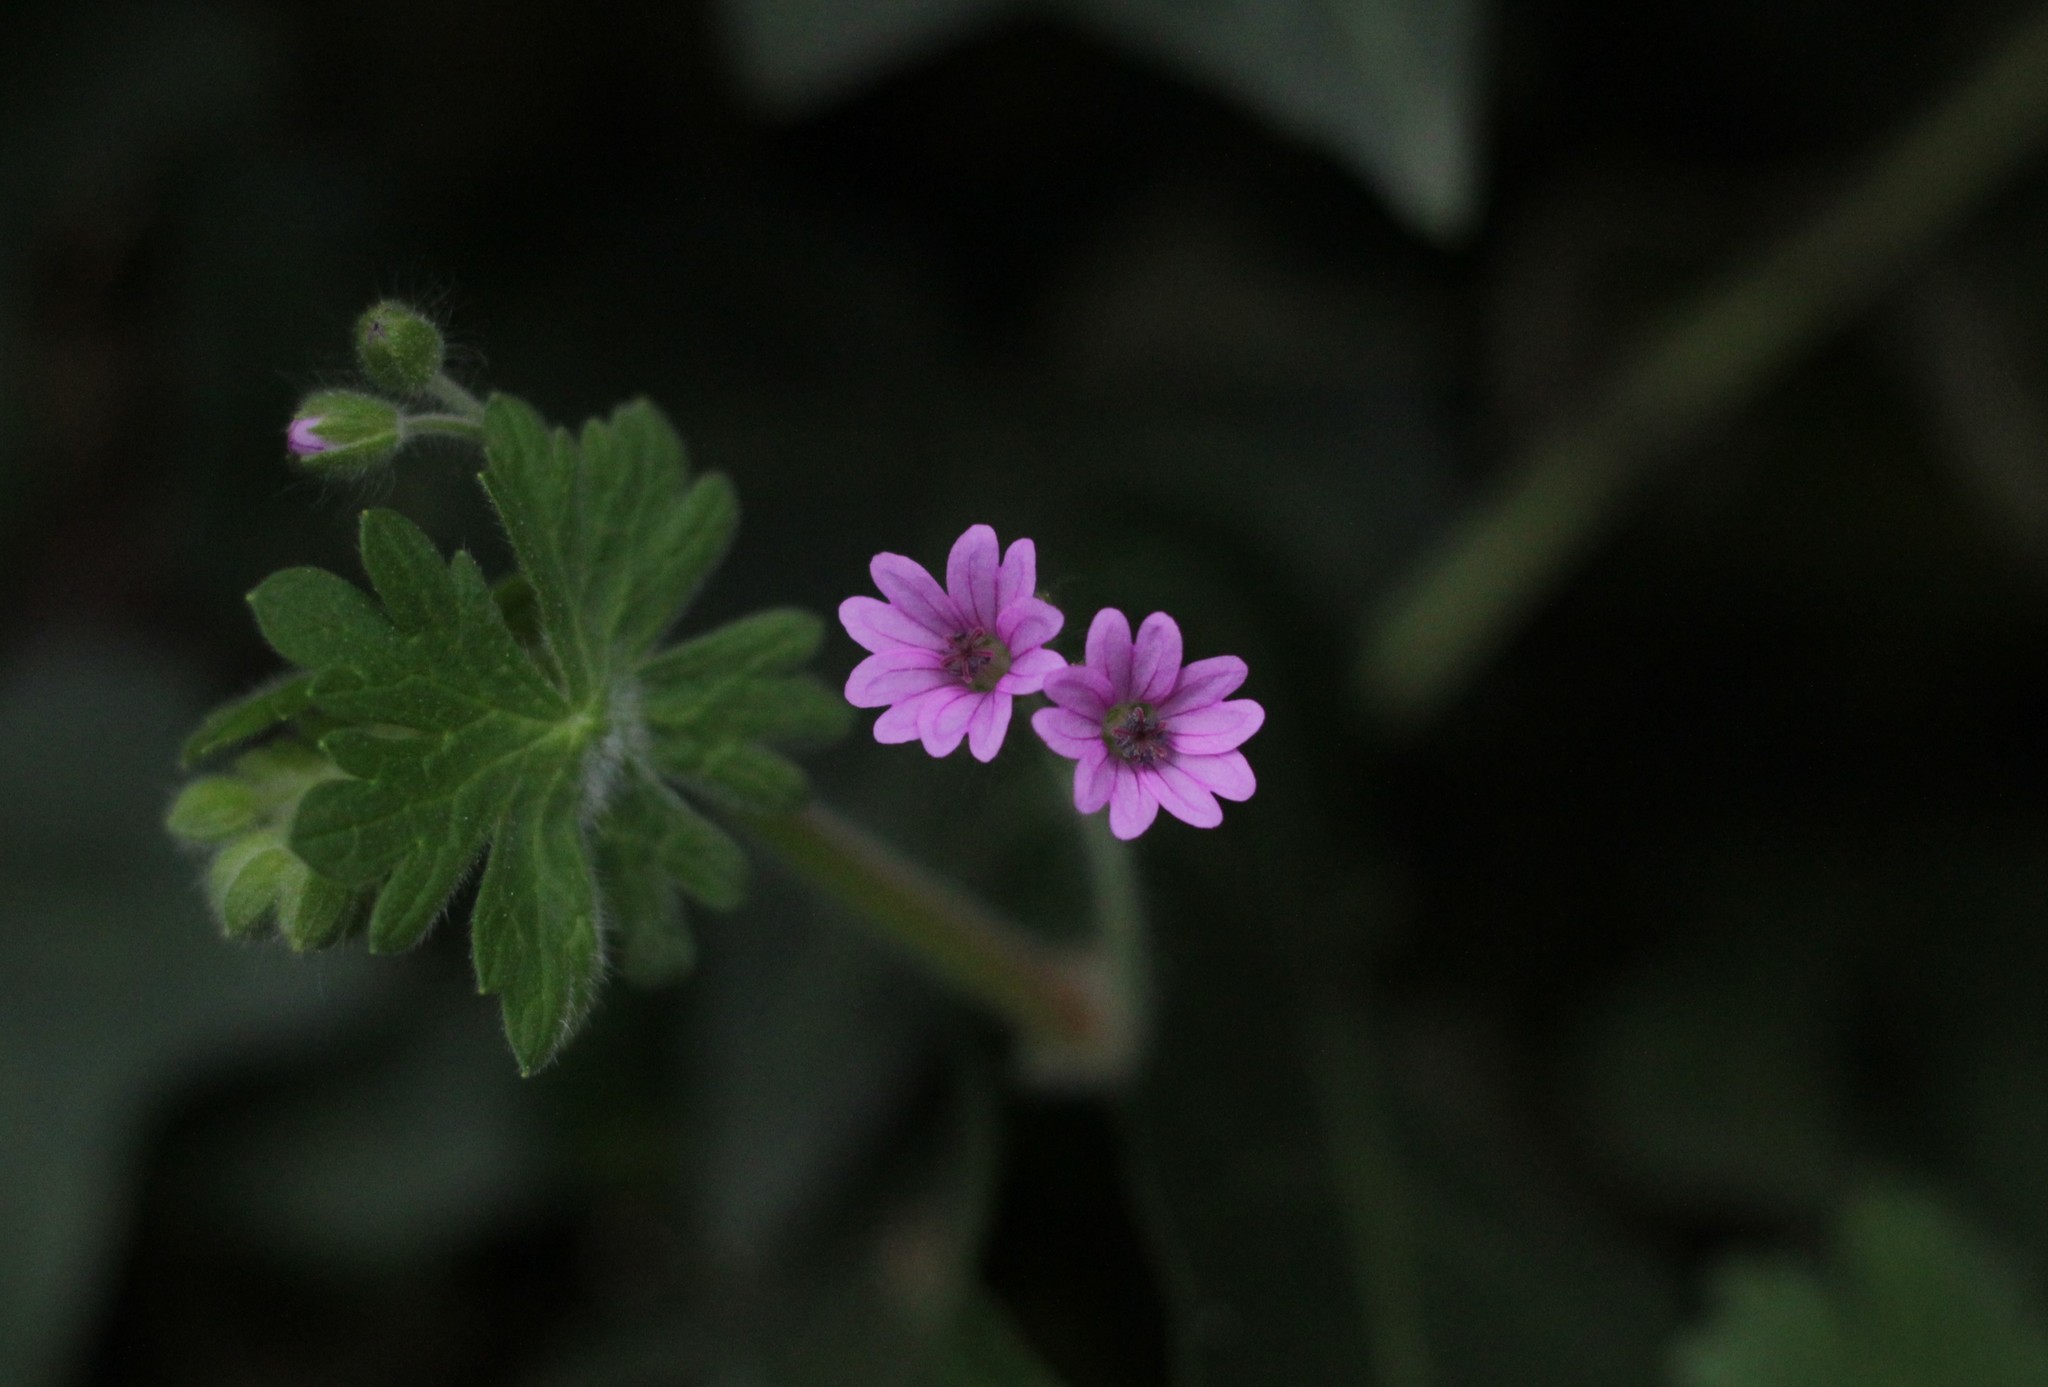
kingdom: Plantae
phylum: Tracheophyta
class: Magnoliopsida
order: Geraniales
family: Geraniaceae
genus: Geranium
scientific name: Geranium pusillum
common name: Small geranium
